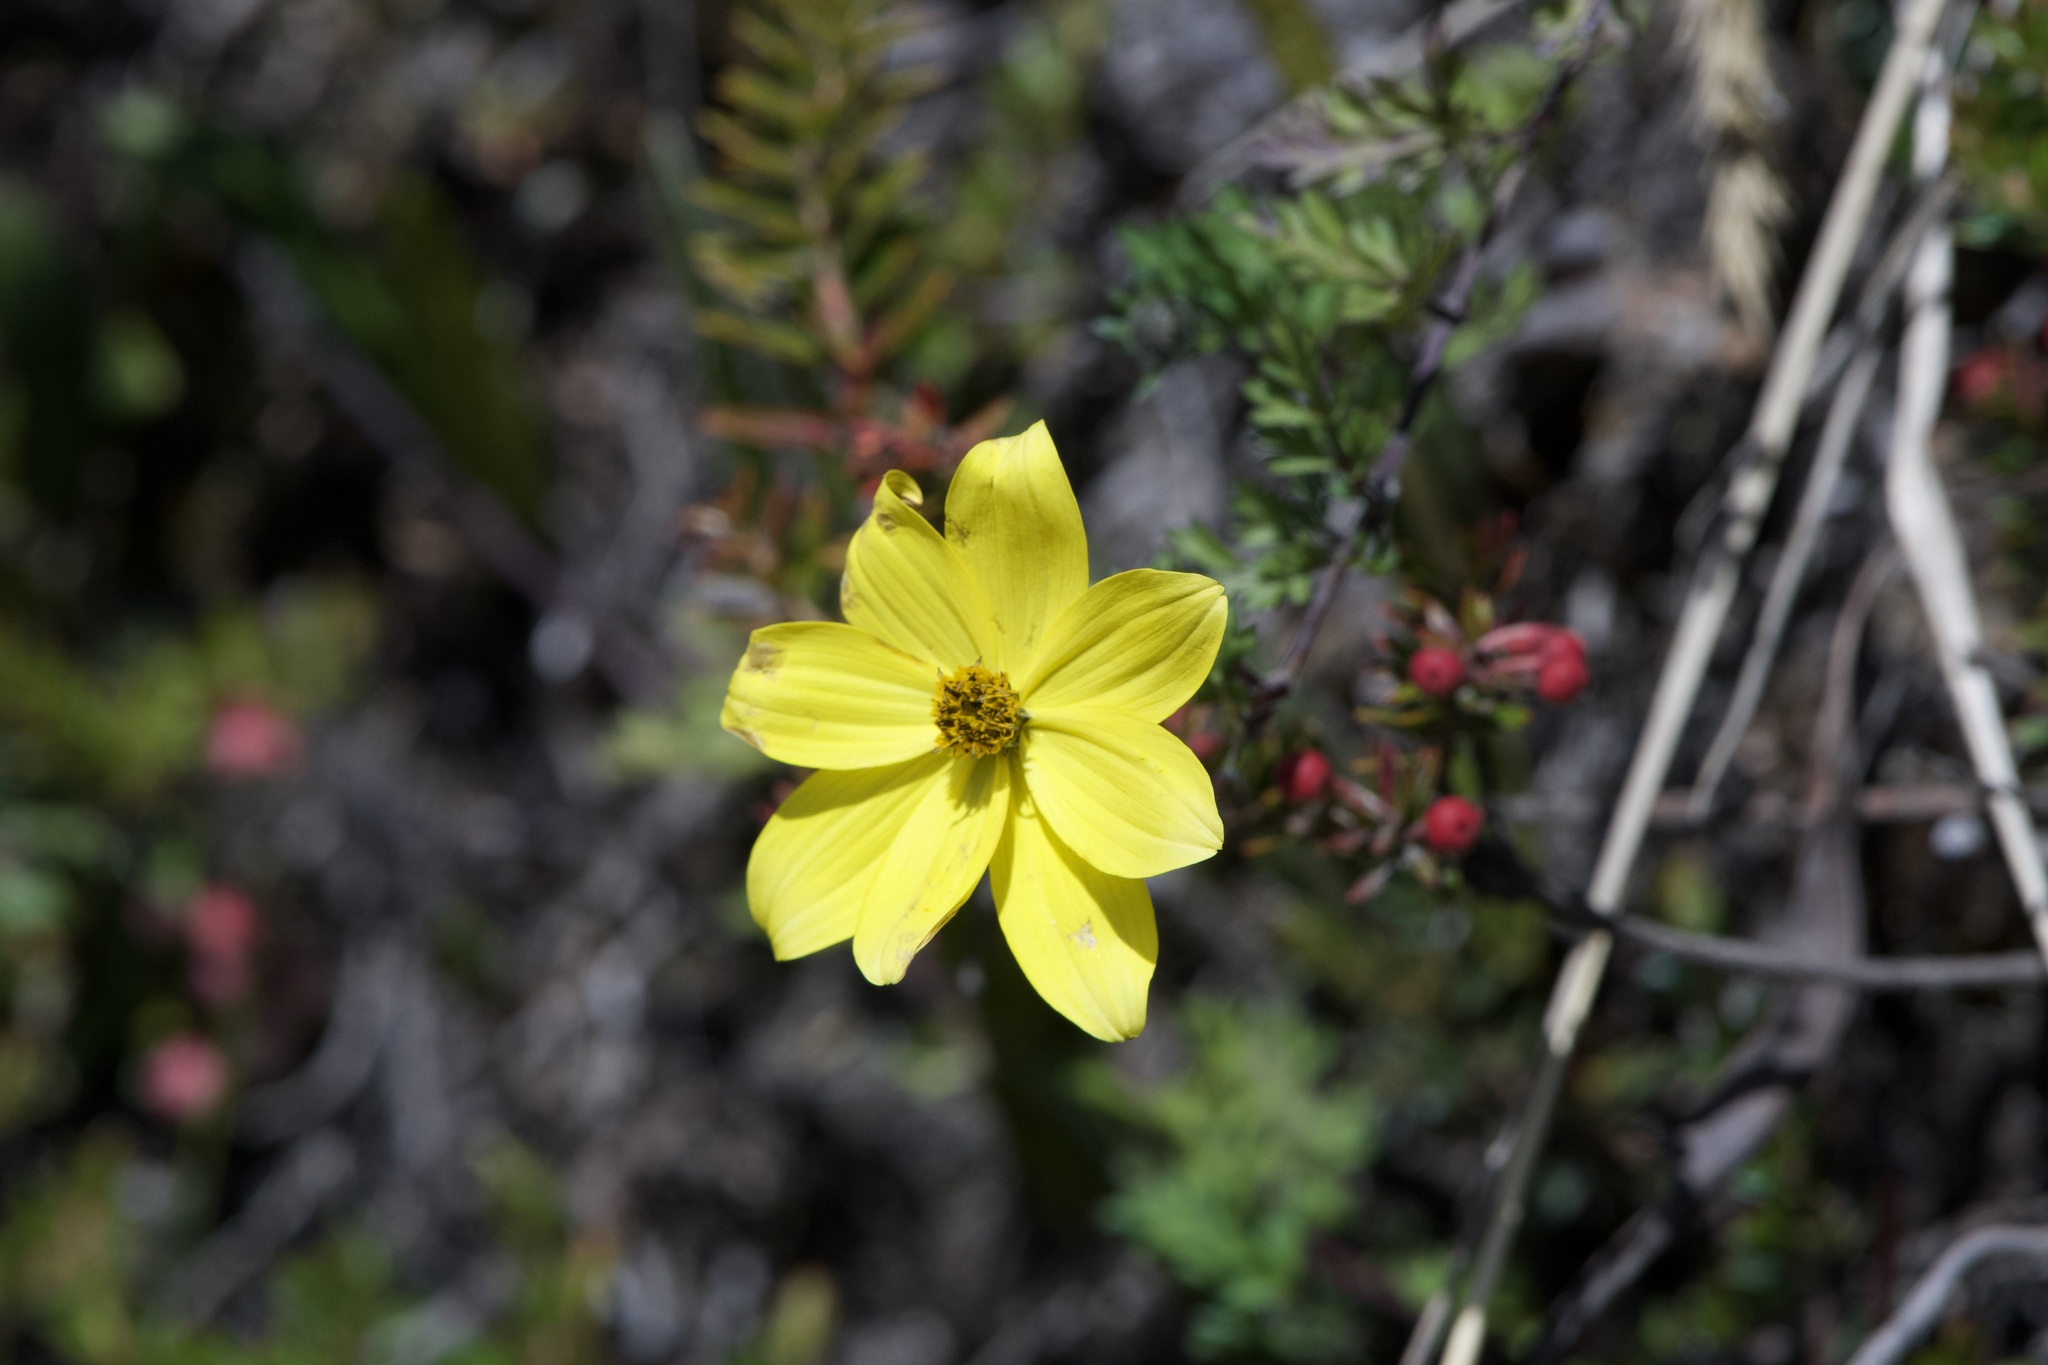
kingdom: Plantae
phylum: Tracheophyta
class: Magnoliopsida
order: Asterales
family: Asteraceae
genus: Bidens
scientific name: Bidens andicola
